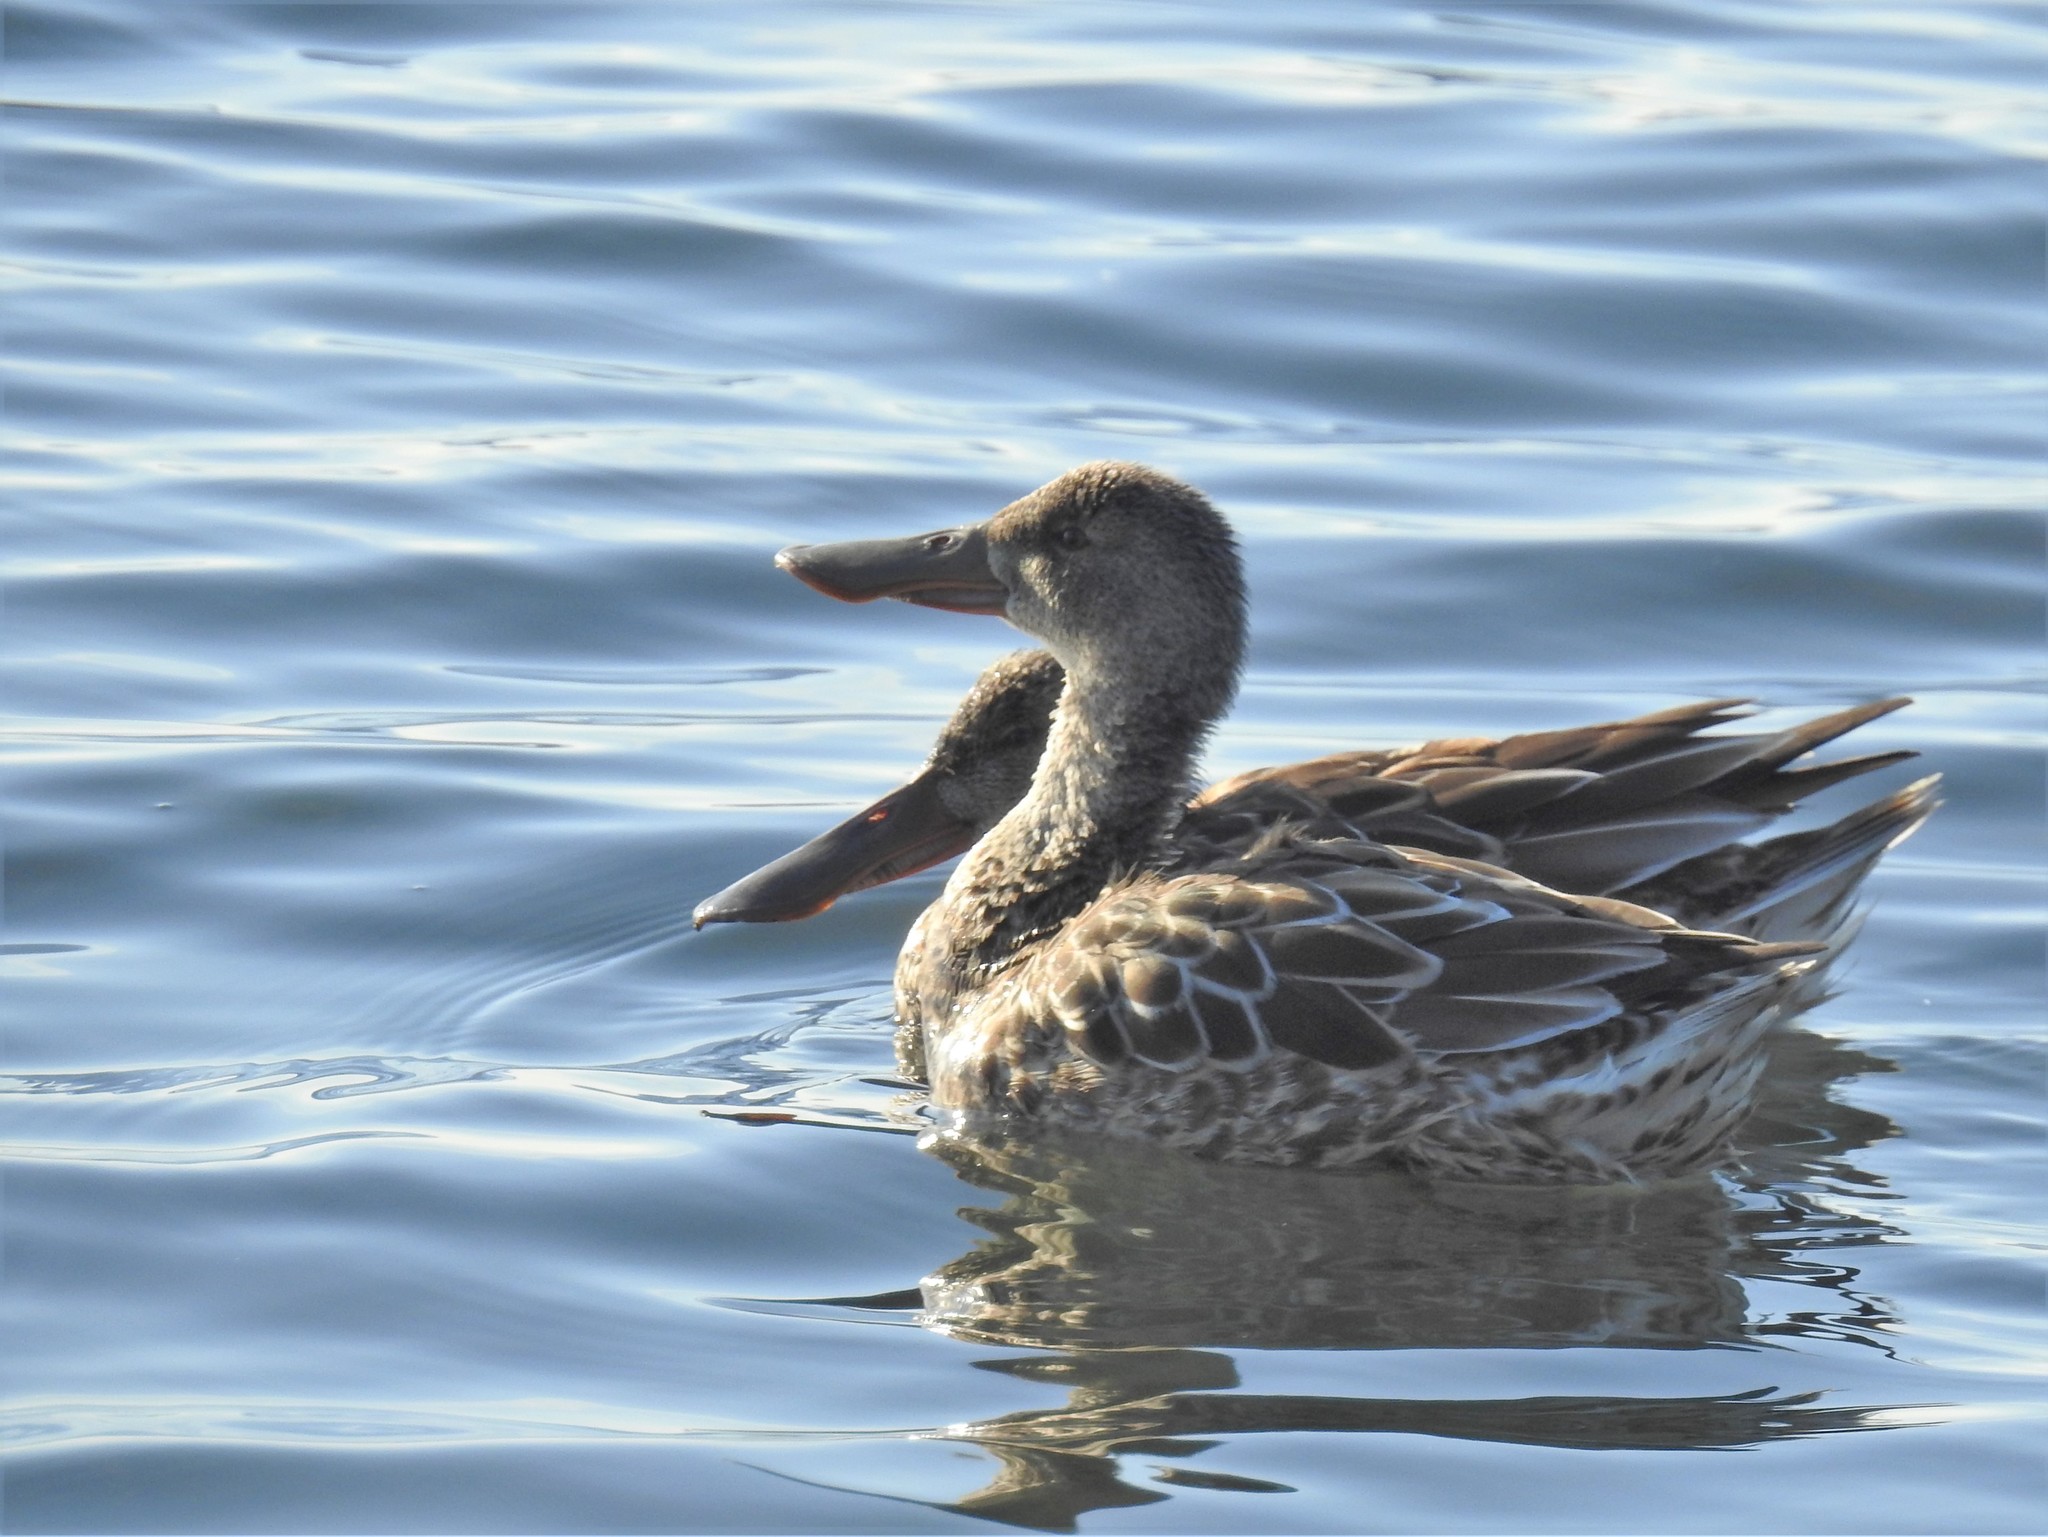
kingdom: Animalia
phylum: Chordata
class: Aves
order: Anseriformes
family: Anatidae
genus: Spatula
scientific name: Spatula clypeata
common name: Northern shoveler
